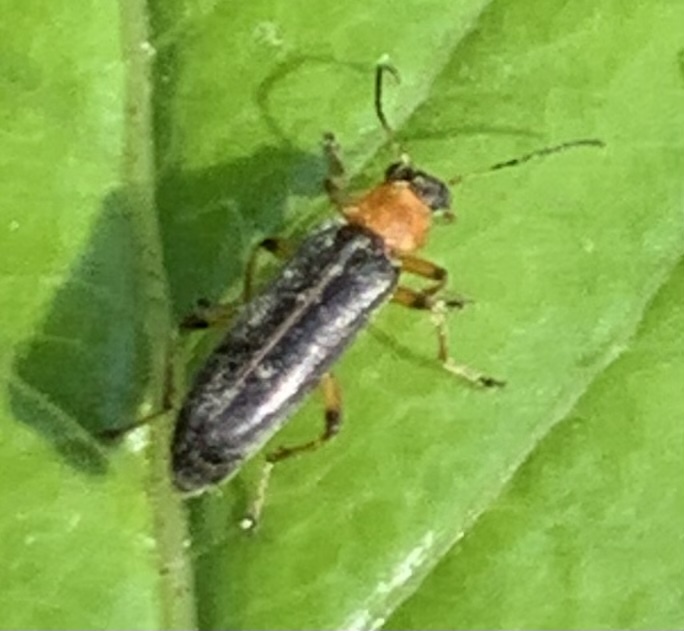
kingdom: Animalia
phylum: Arthropoda
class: Insecta
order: Coleoptera
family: Melandryidae
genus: Osphya
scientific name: Osphya varians
